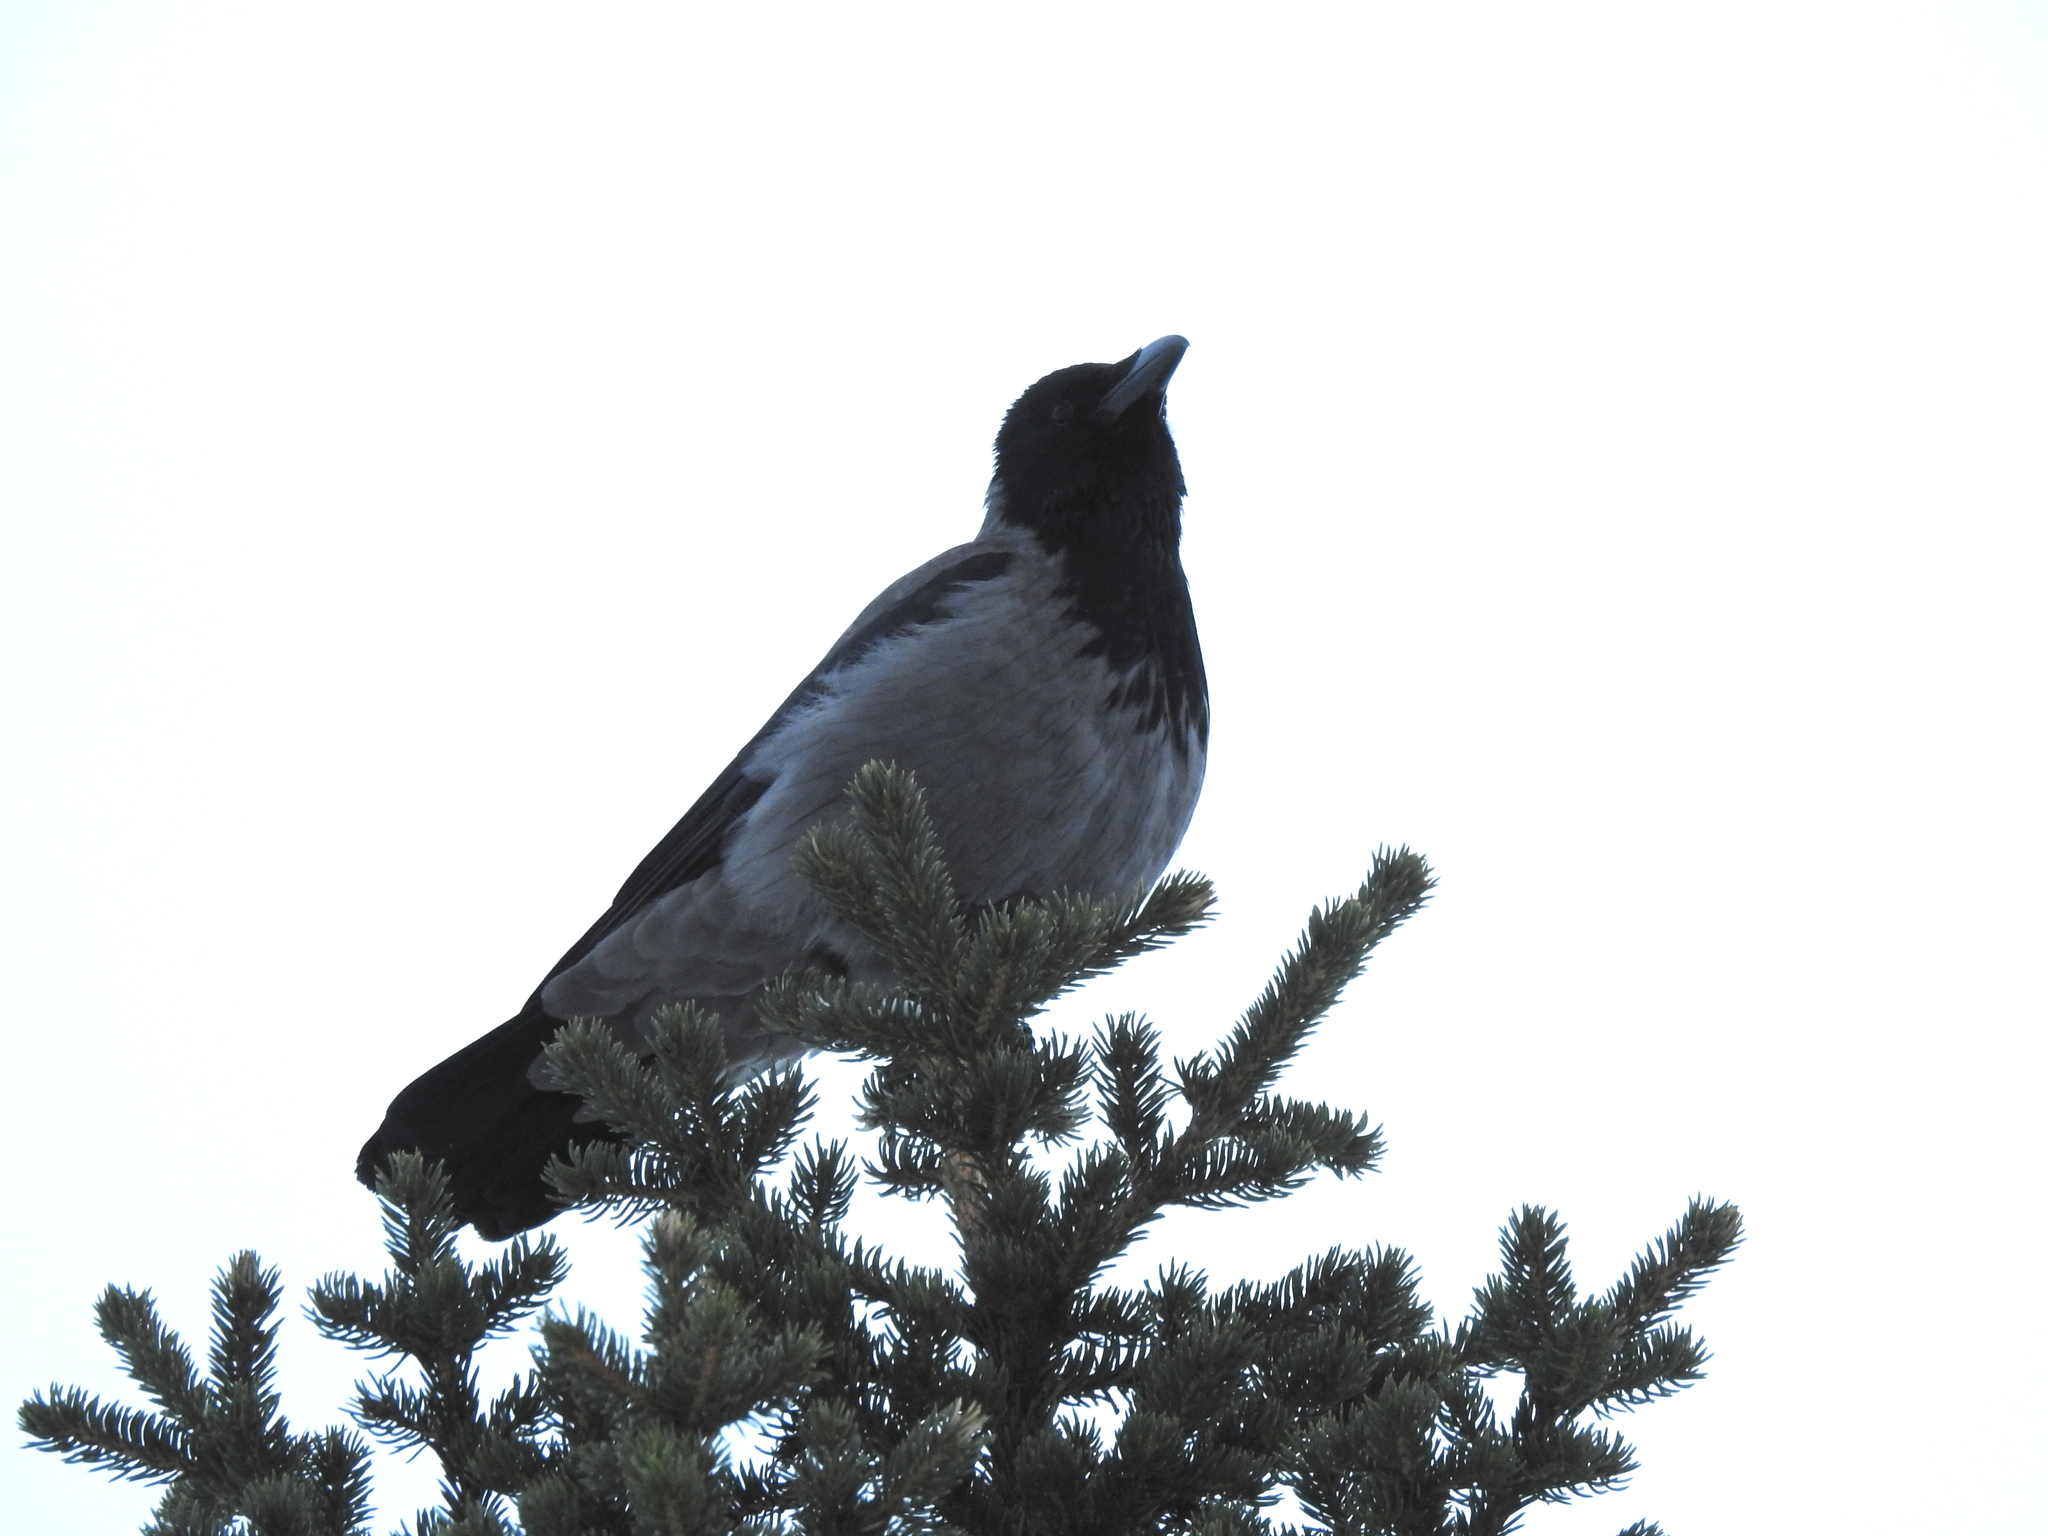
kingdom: Animalia
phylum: Chordata
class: Aves
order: Passeriformes
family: Corvidae
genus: Corvus
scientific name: Corvus cornix
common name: Hooded crow
